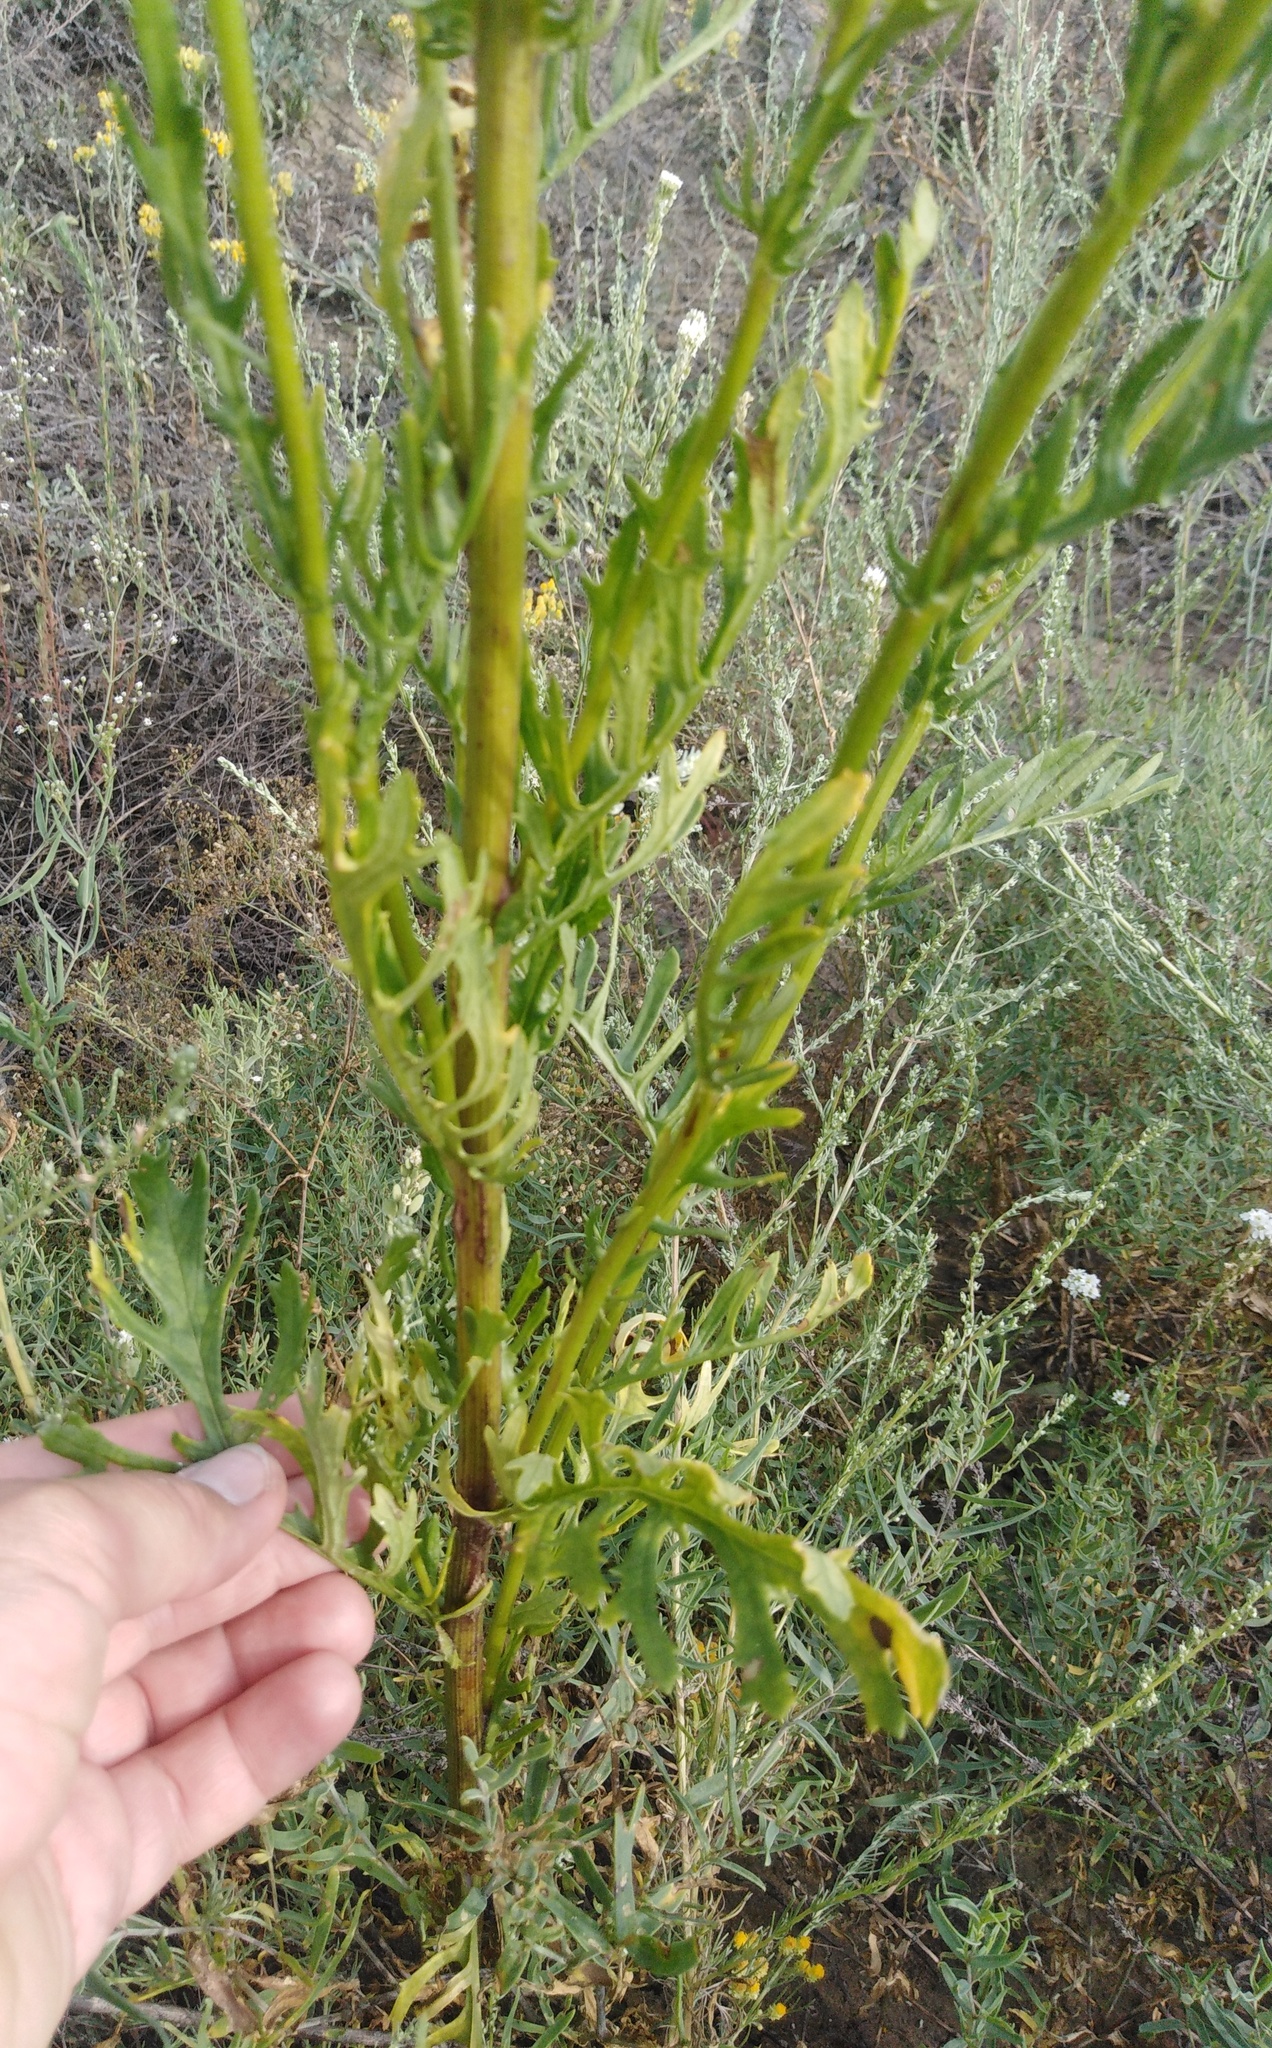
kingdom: Plantae
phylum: Tracheophyta
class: Magnoliopsida
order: Asterales
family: Asteraceae
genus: Jacobaea
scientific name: Jacobaea vulgaris
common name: Stinking willie
